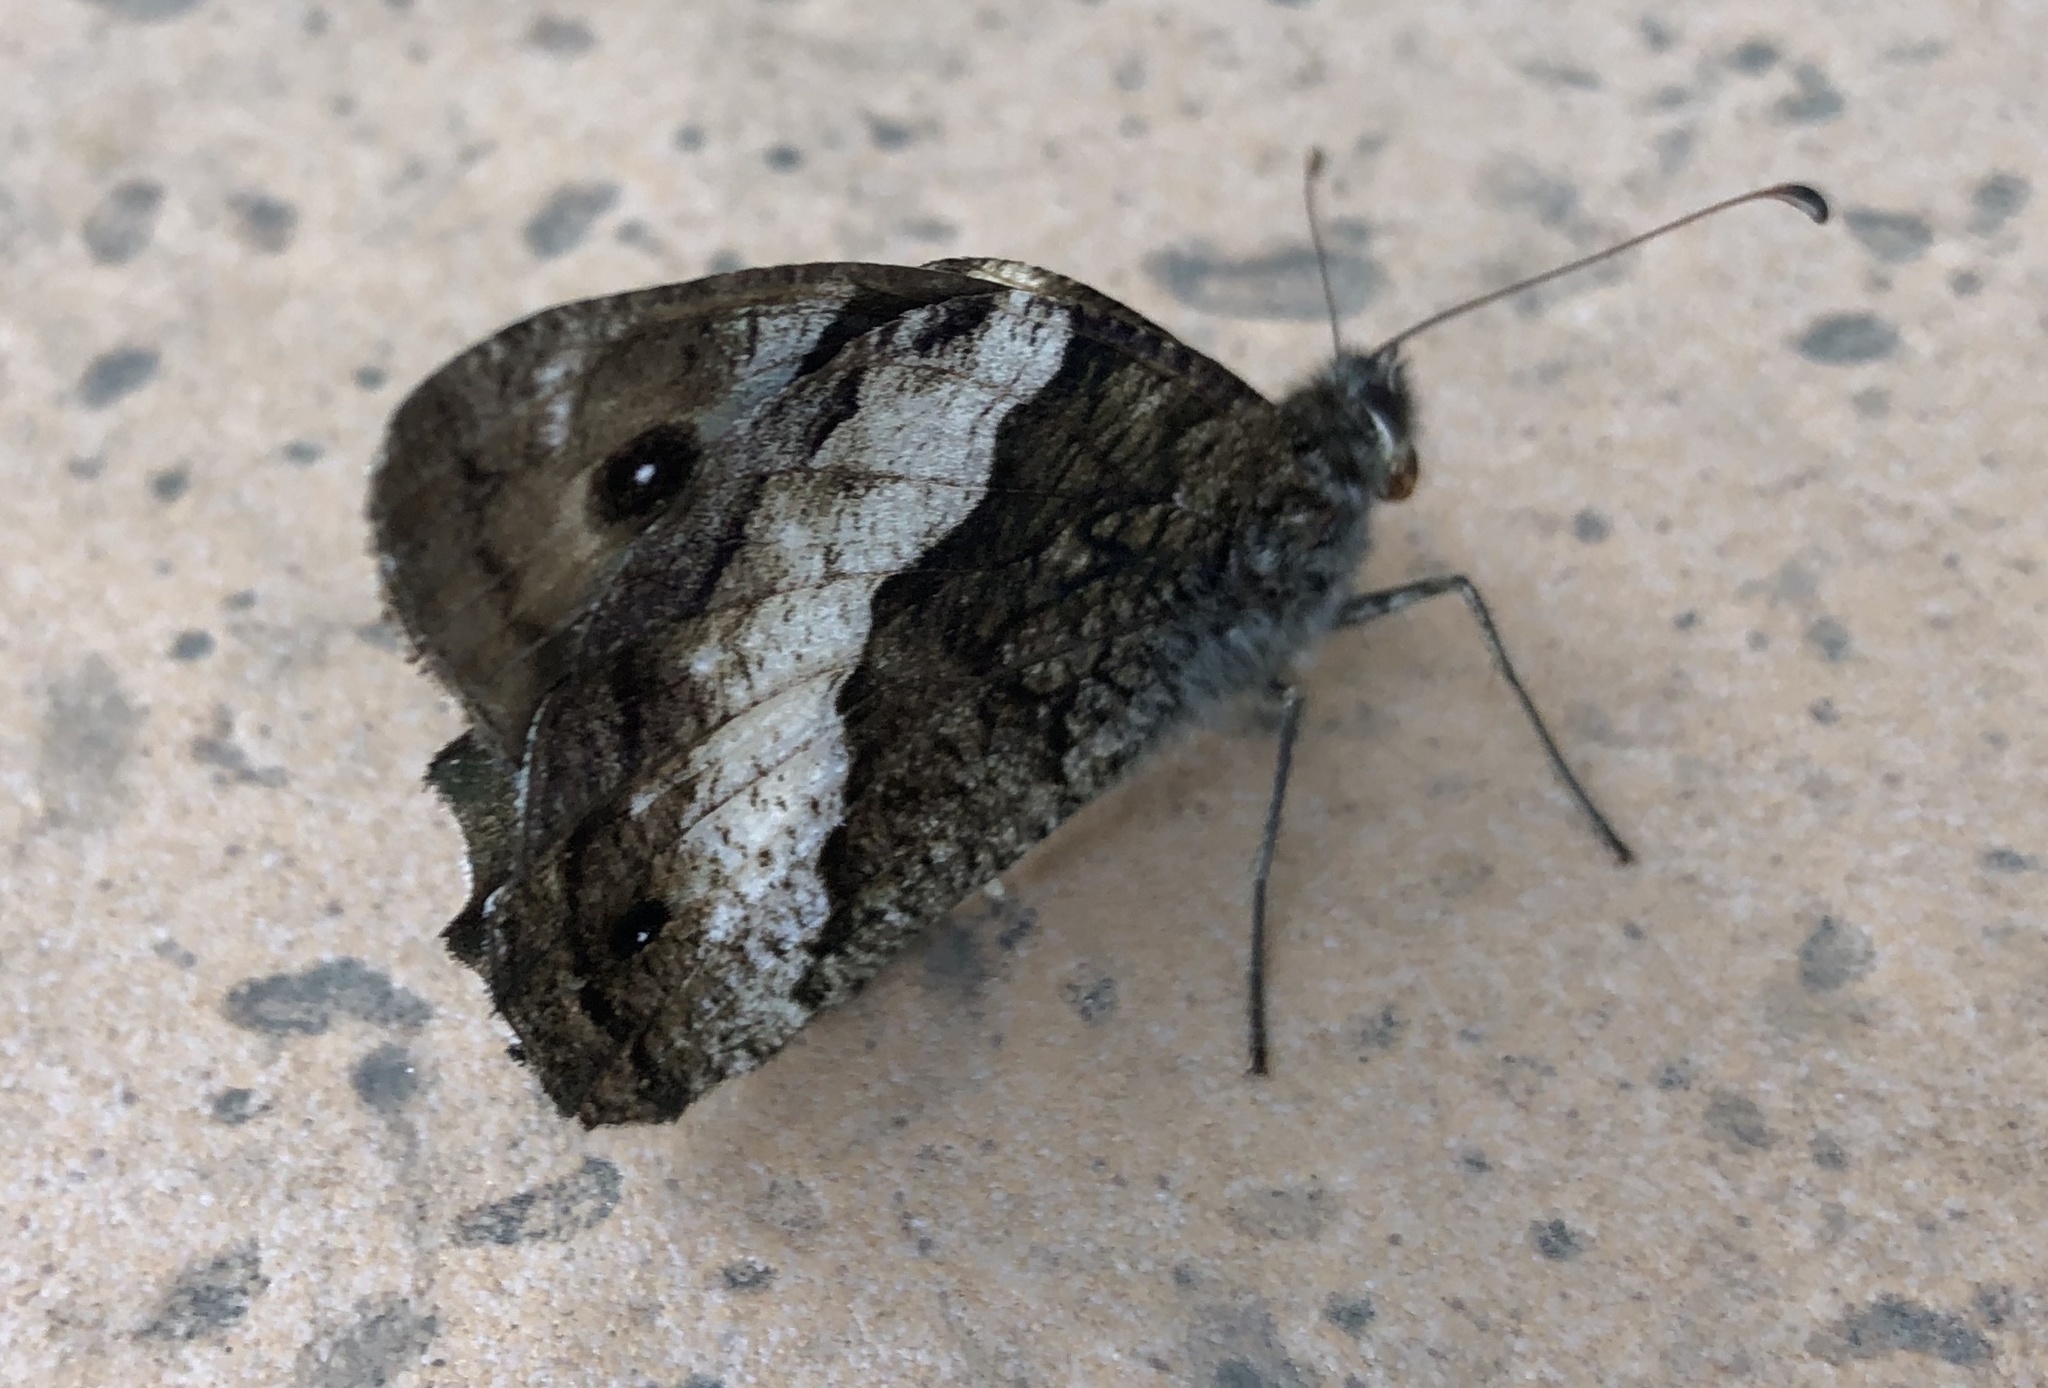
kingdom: Animalia
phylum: Arthropoda
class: Insecta
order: Lepidoptera
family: Nymphalidae
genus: Hipparchia
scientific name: Hipparchia fagi
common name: Woodland grayling
